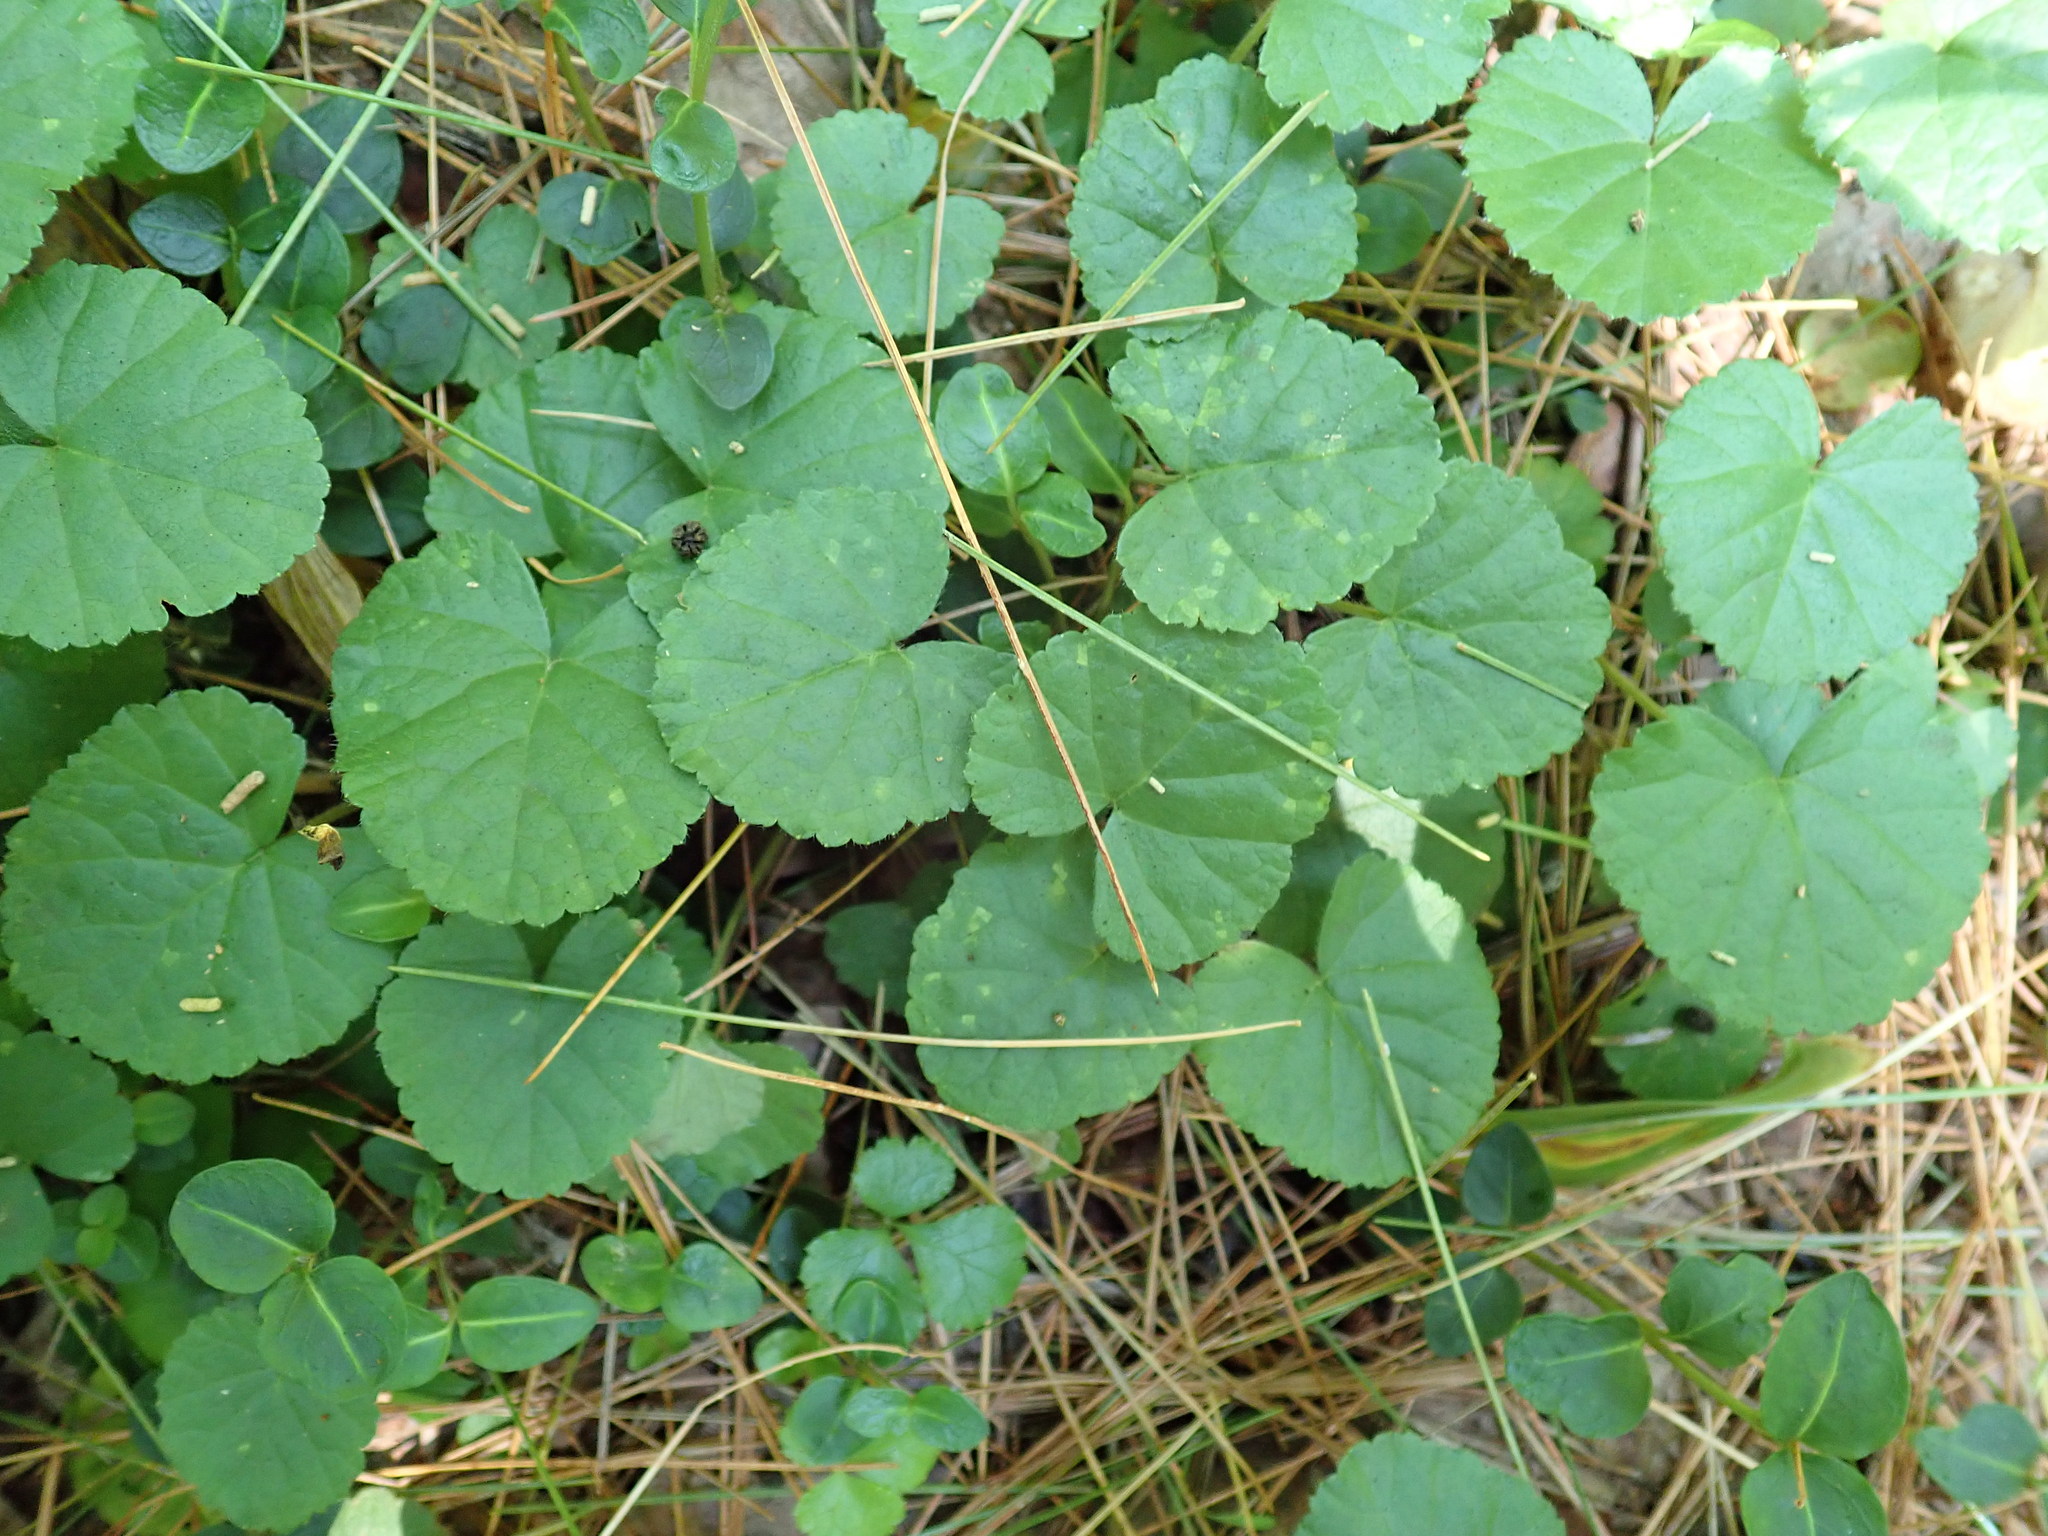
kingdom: Plantae
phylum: Tracheophyta
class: Magnoliopsida
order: Rosales
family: Rosaceae
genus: Dalibarda
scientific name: Dalibarda repens
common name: Dewdrop
